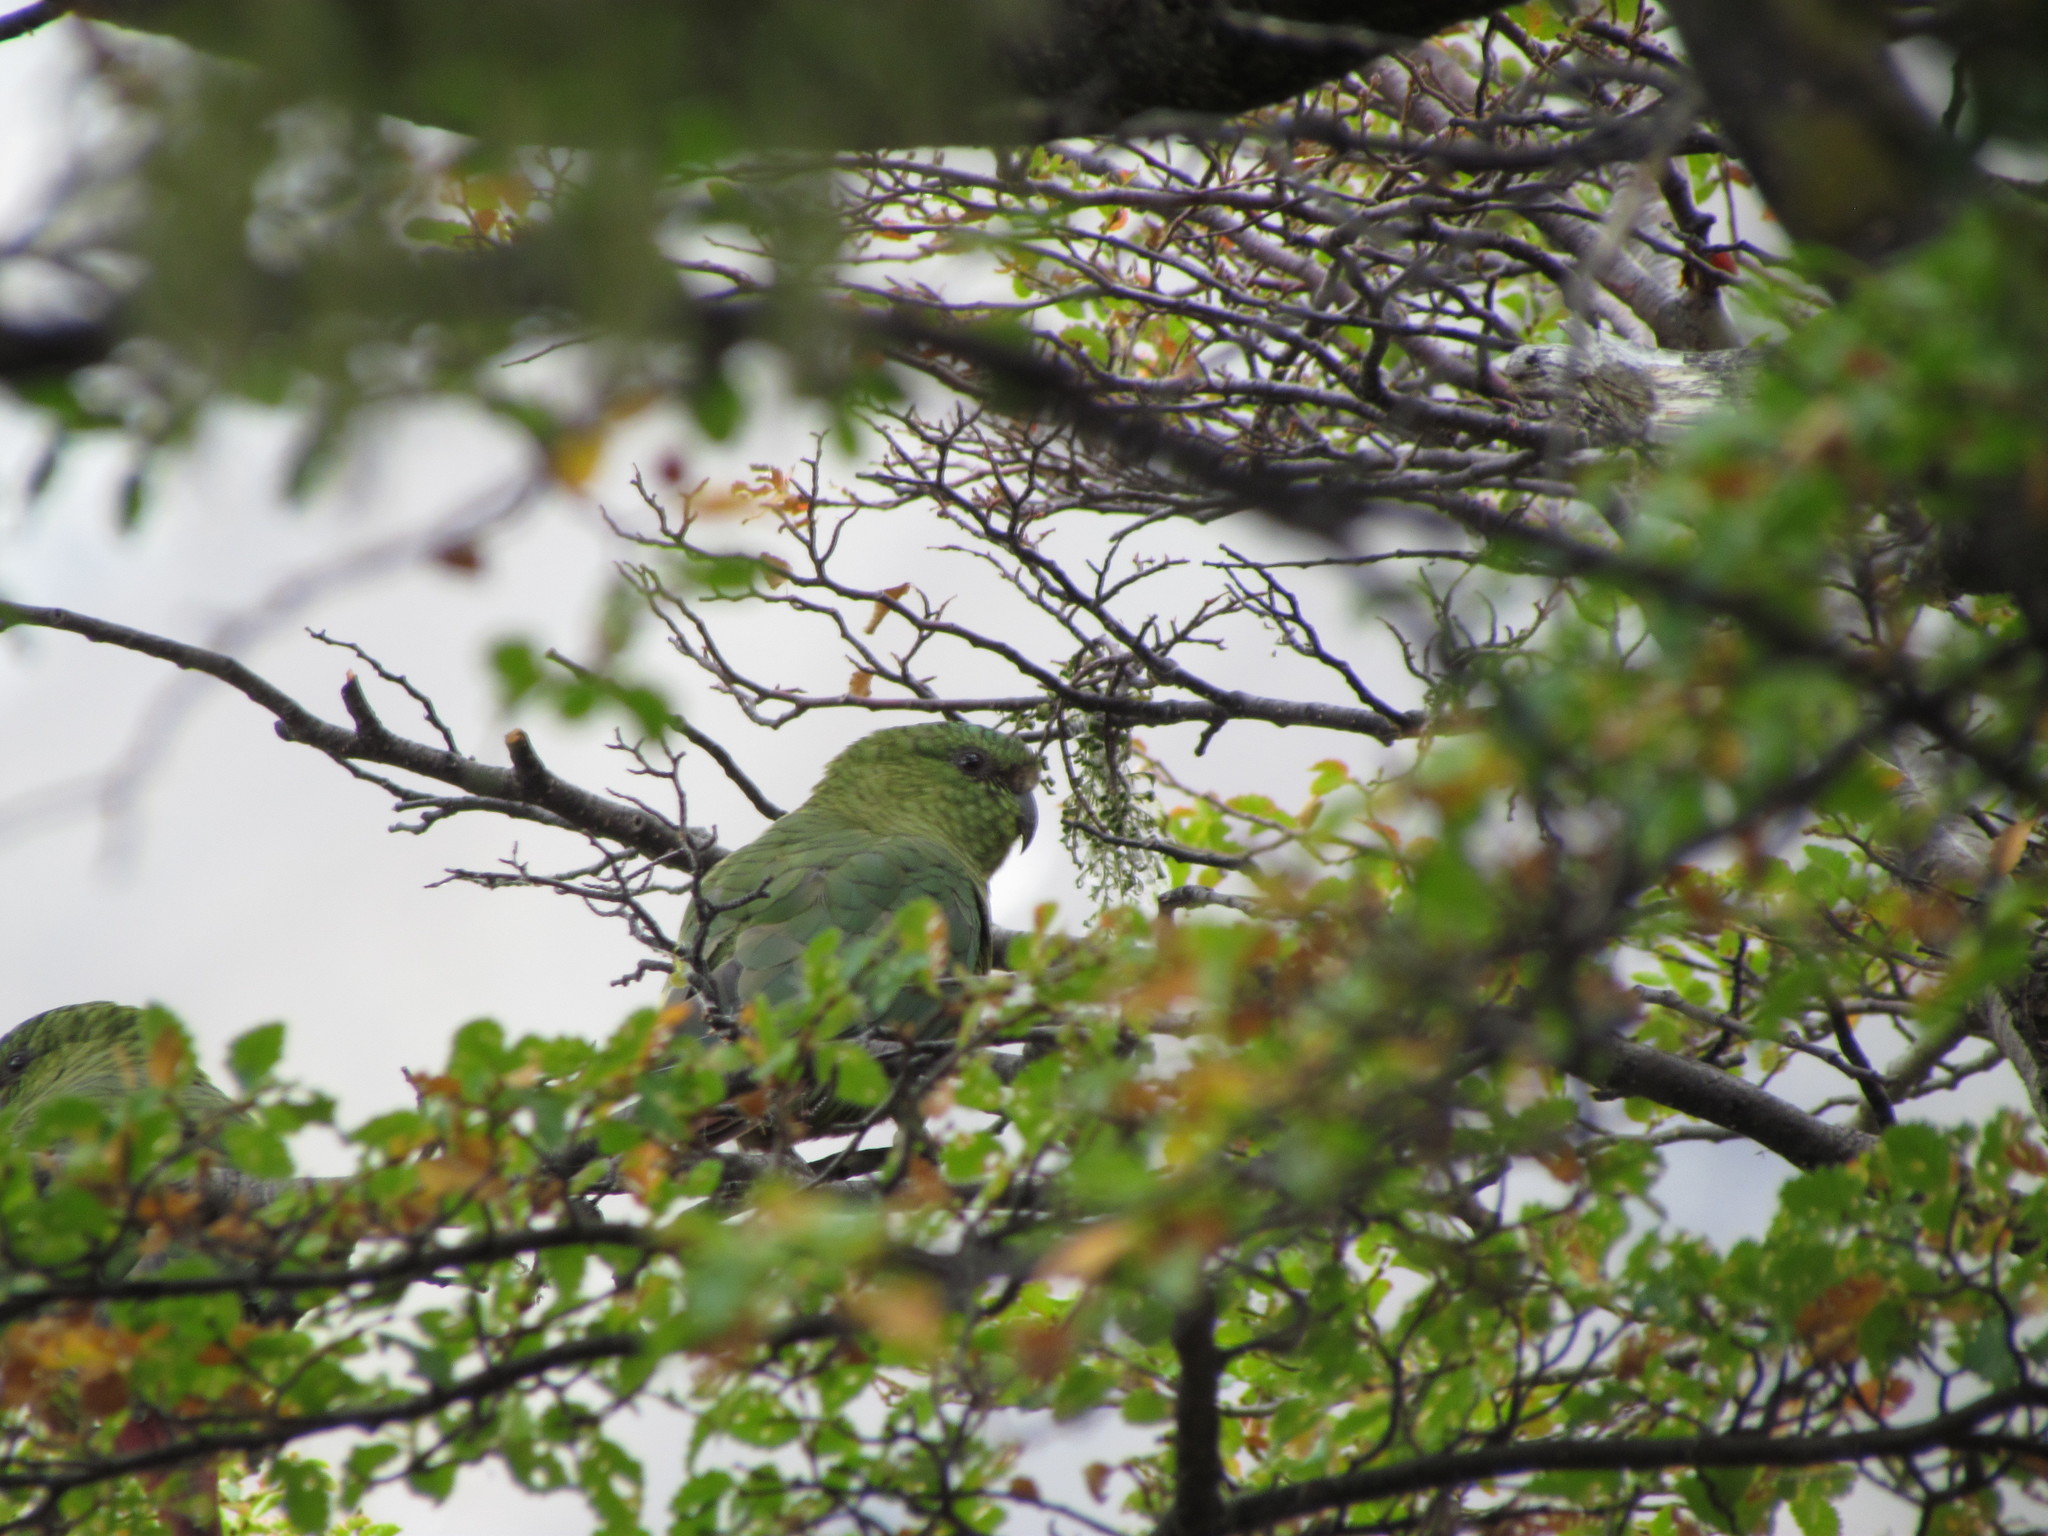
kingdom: Animalia
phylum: Chordata
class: Aves
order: Psittaciformes
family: Psittacidae
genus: Enicognathus
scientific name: Enicognathus ferrugineus
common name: Austral parakeet
